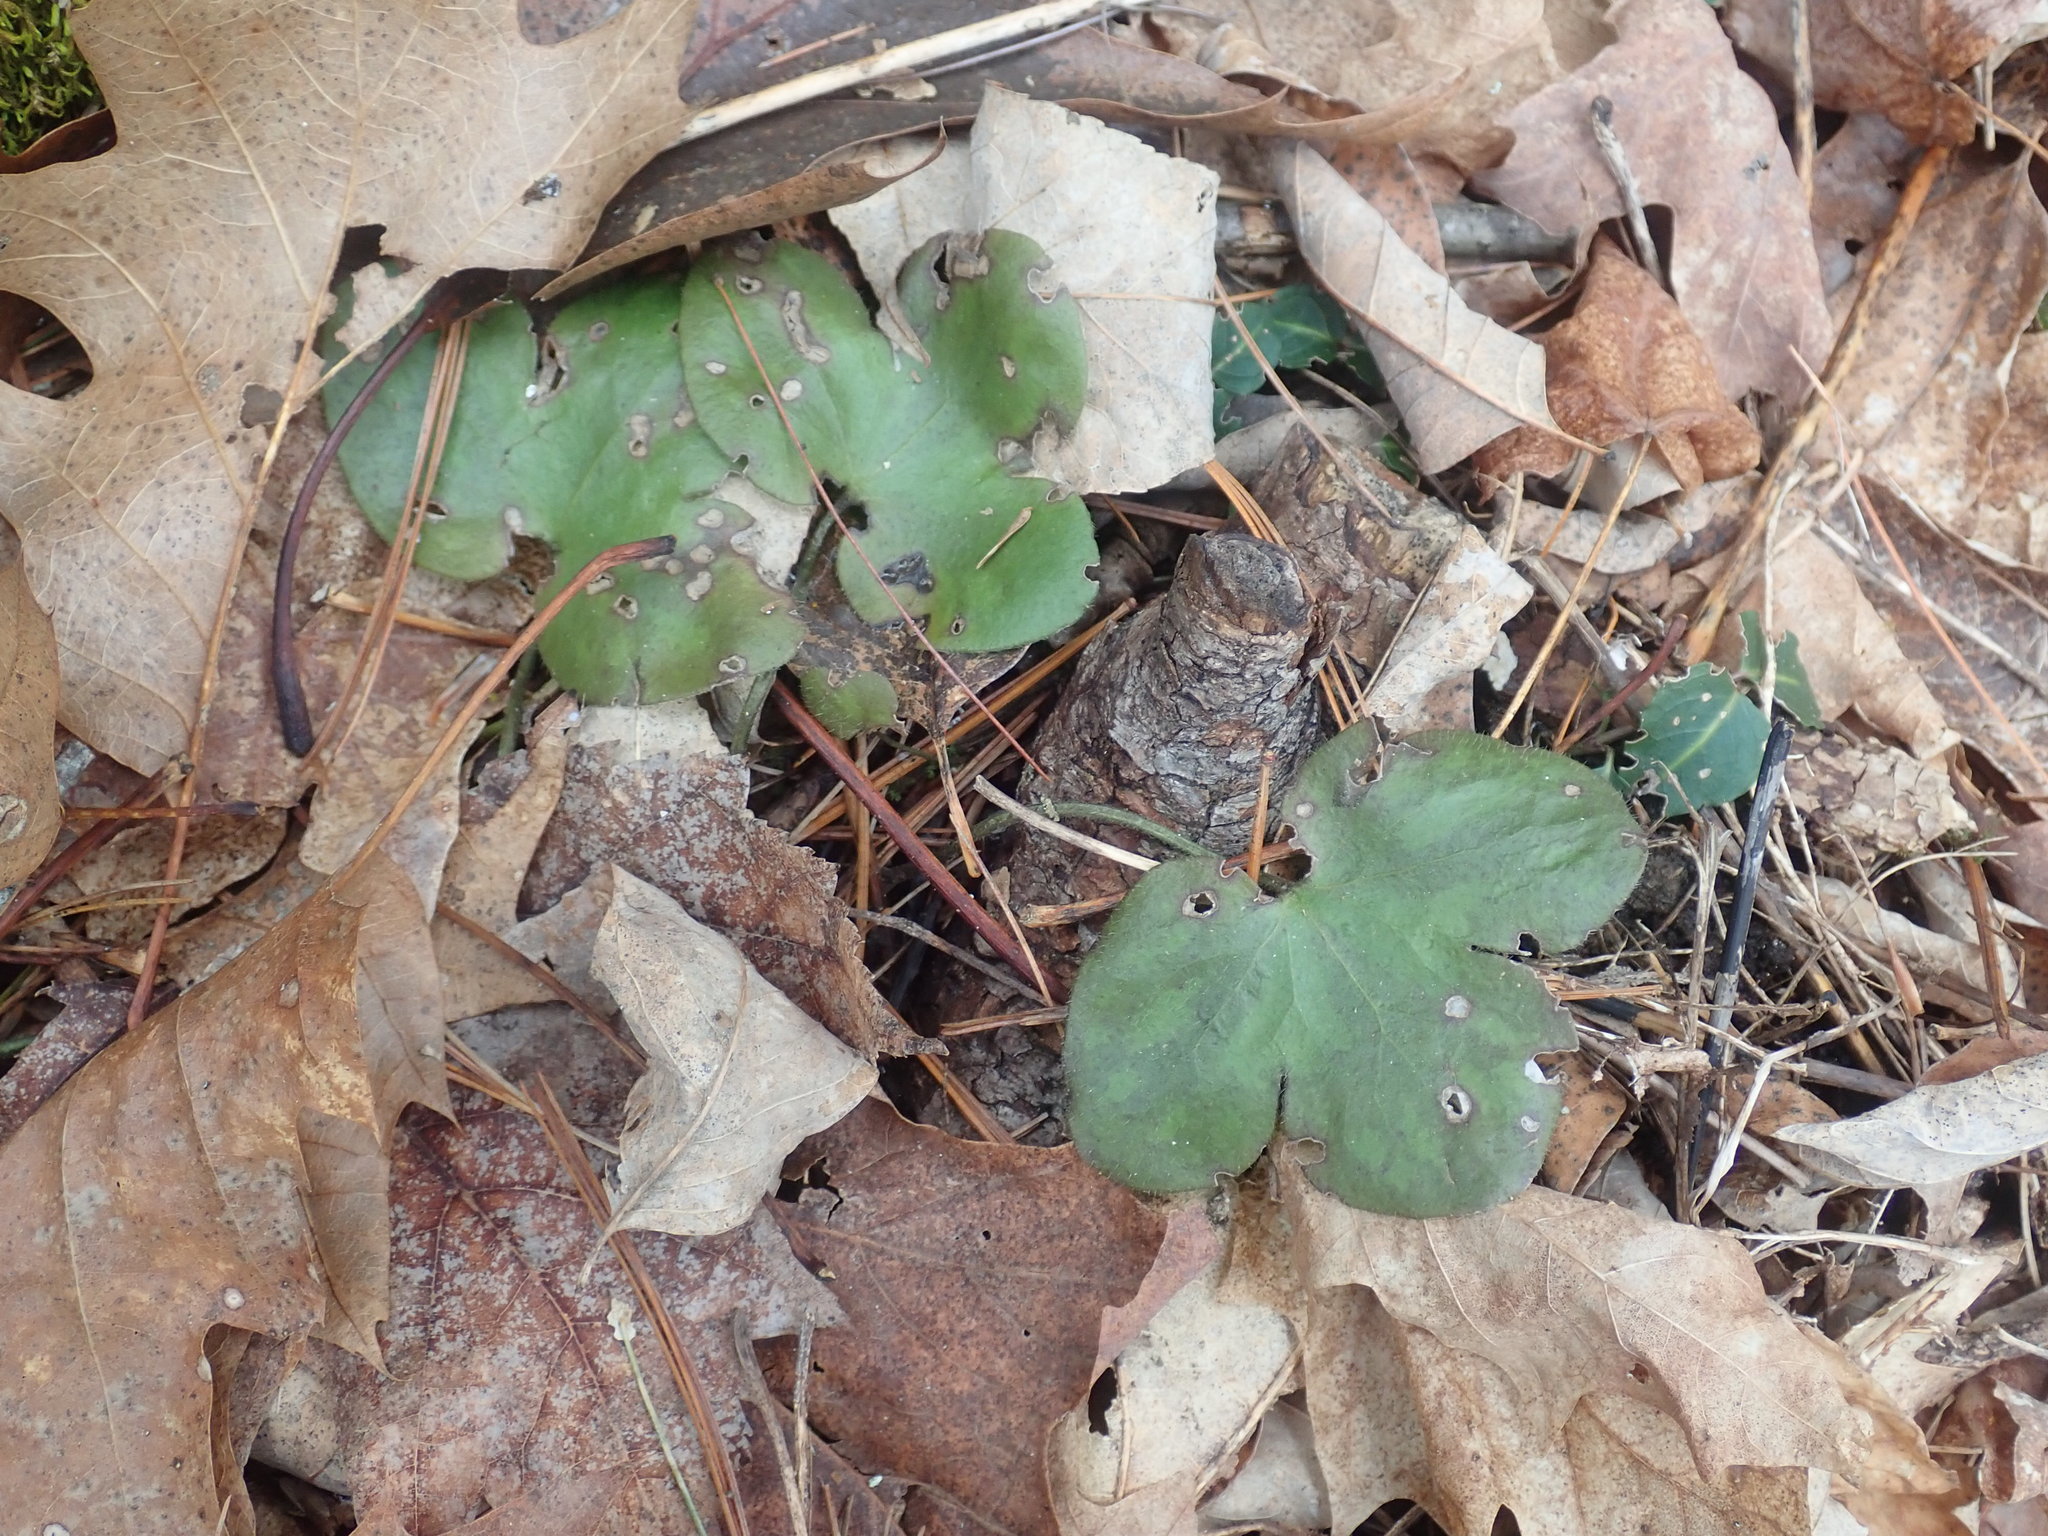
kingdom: Plantae
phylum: Tracheophyta
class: Magnoliopsida
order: Ranunculales
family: Ranunculaceae
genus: Hepatica
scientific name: Hepatica americana
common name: American hepatica
